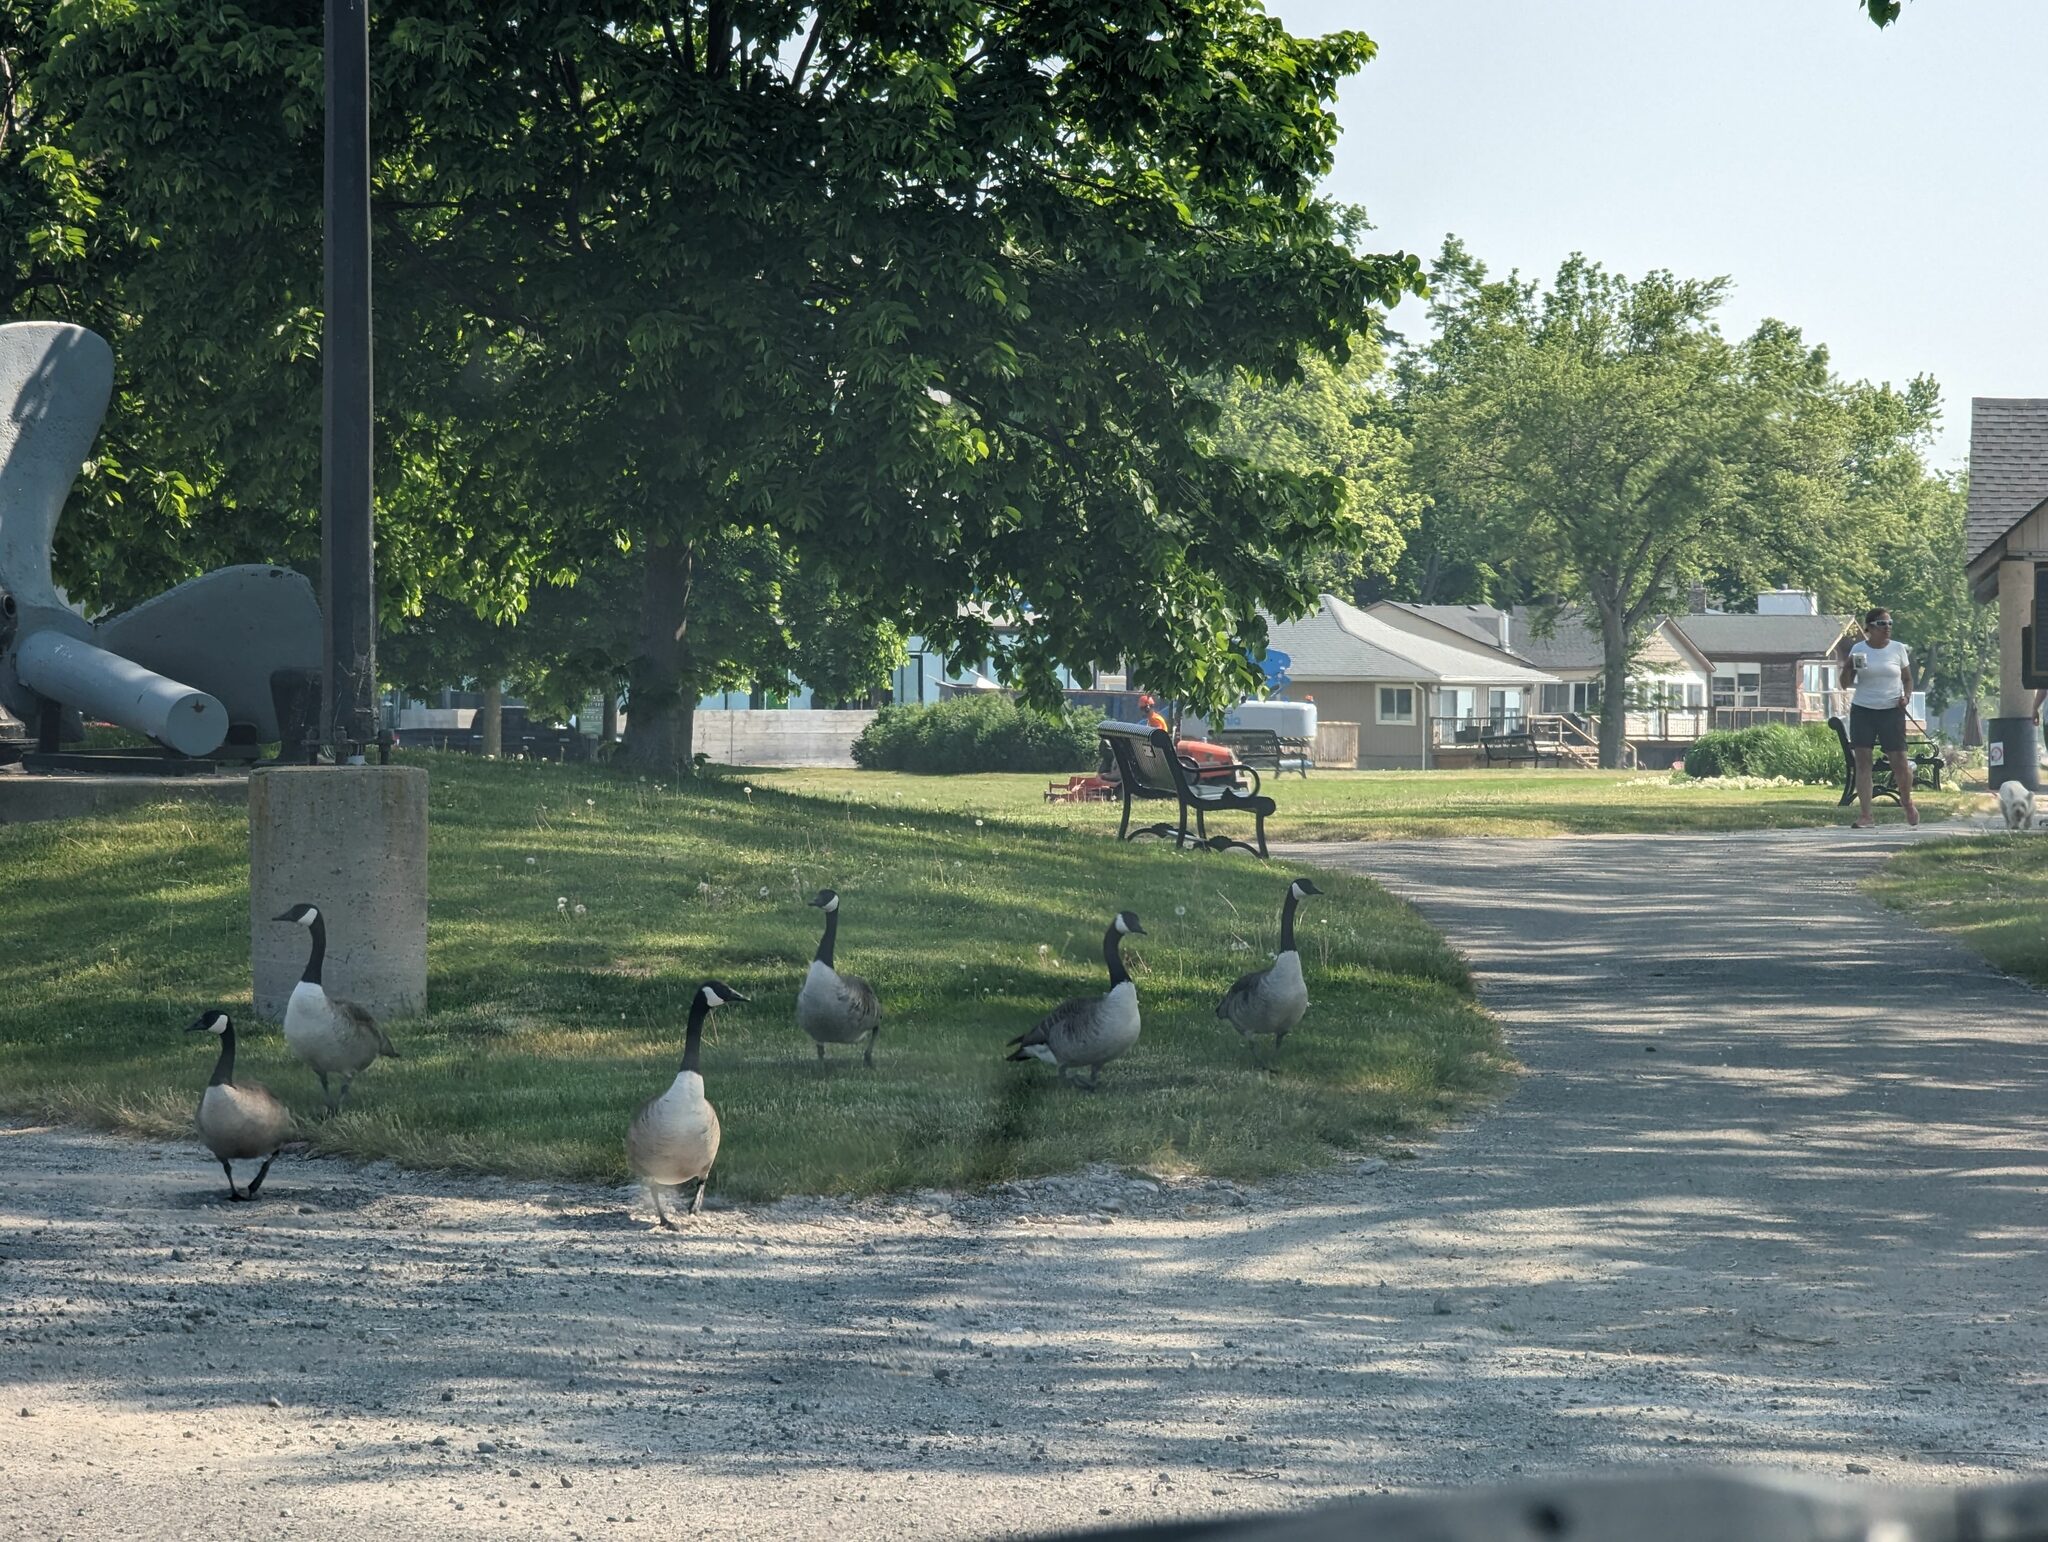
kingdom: Animalia
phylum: Chordata
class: Aves
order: Anseriformes
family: Anatidae
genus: Branta
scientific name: Branta canadensis
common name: Canada goose
